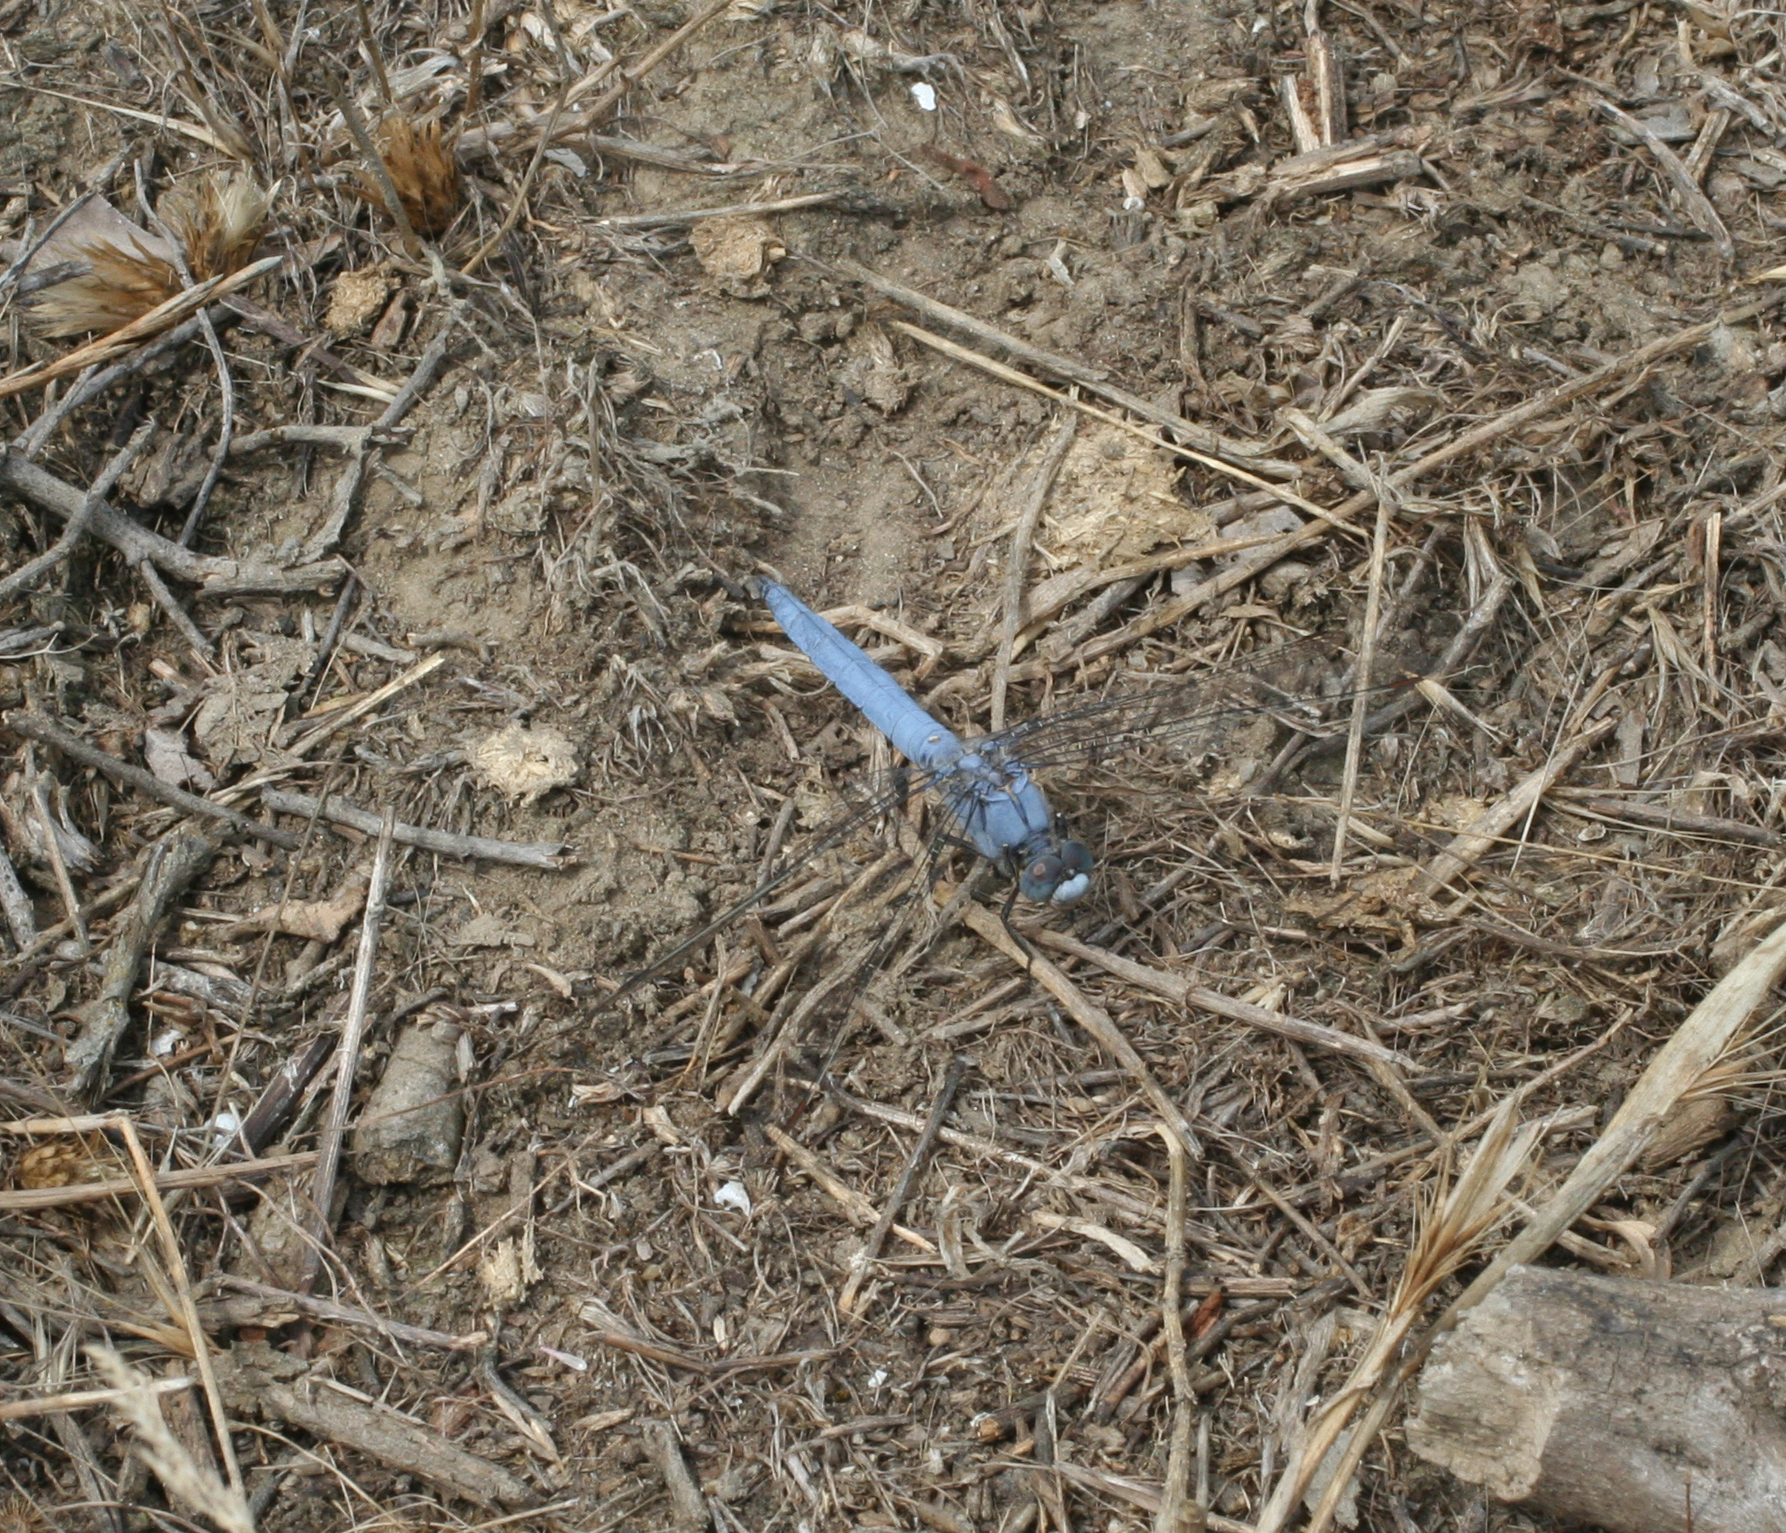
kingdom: Animalia
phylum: Arthropoda
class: Insecta
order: Odonata
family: Libellulidae
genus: Orthetrum
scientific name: Orthetrum brunneum
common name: Southern skimmer
